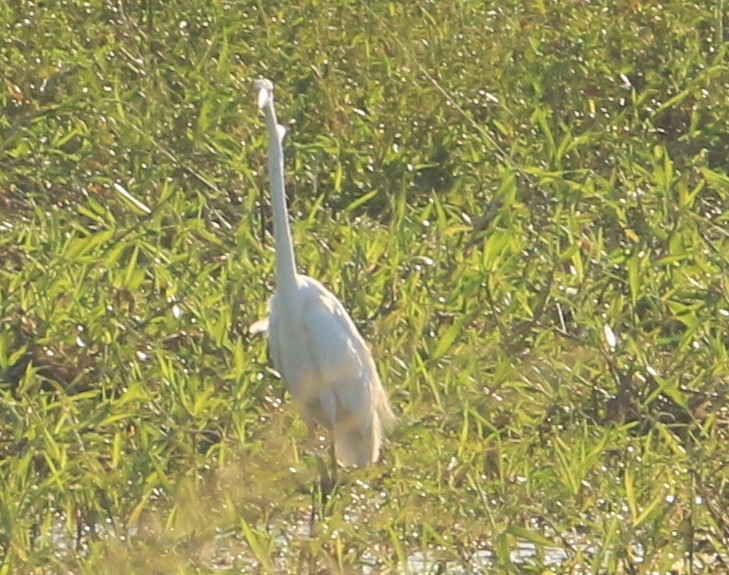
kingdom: Animalia
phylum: Chordata
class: Aves
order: Pelecaniformes
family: Ardeidae
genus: Ardea
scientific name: Ardea alba
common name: Great egret
